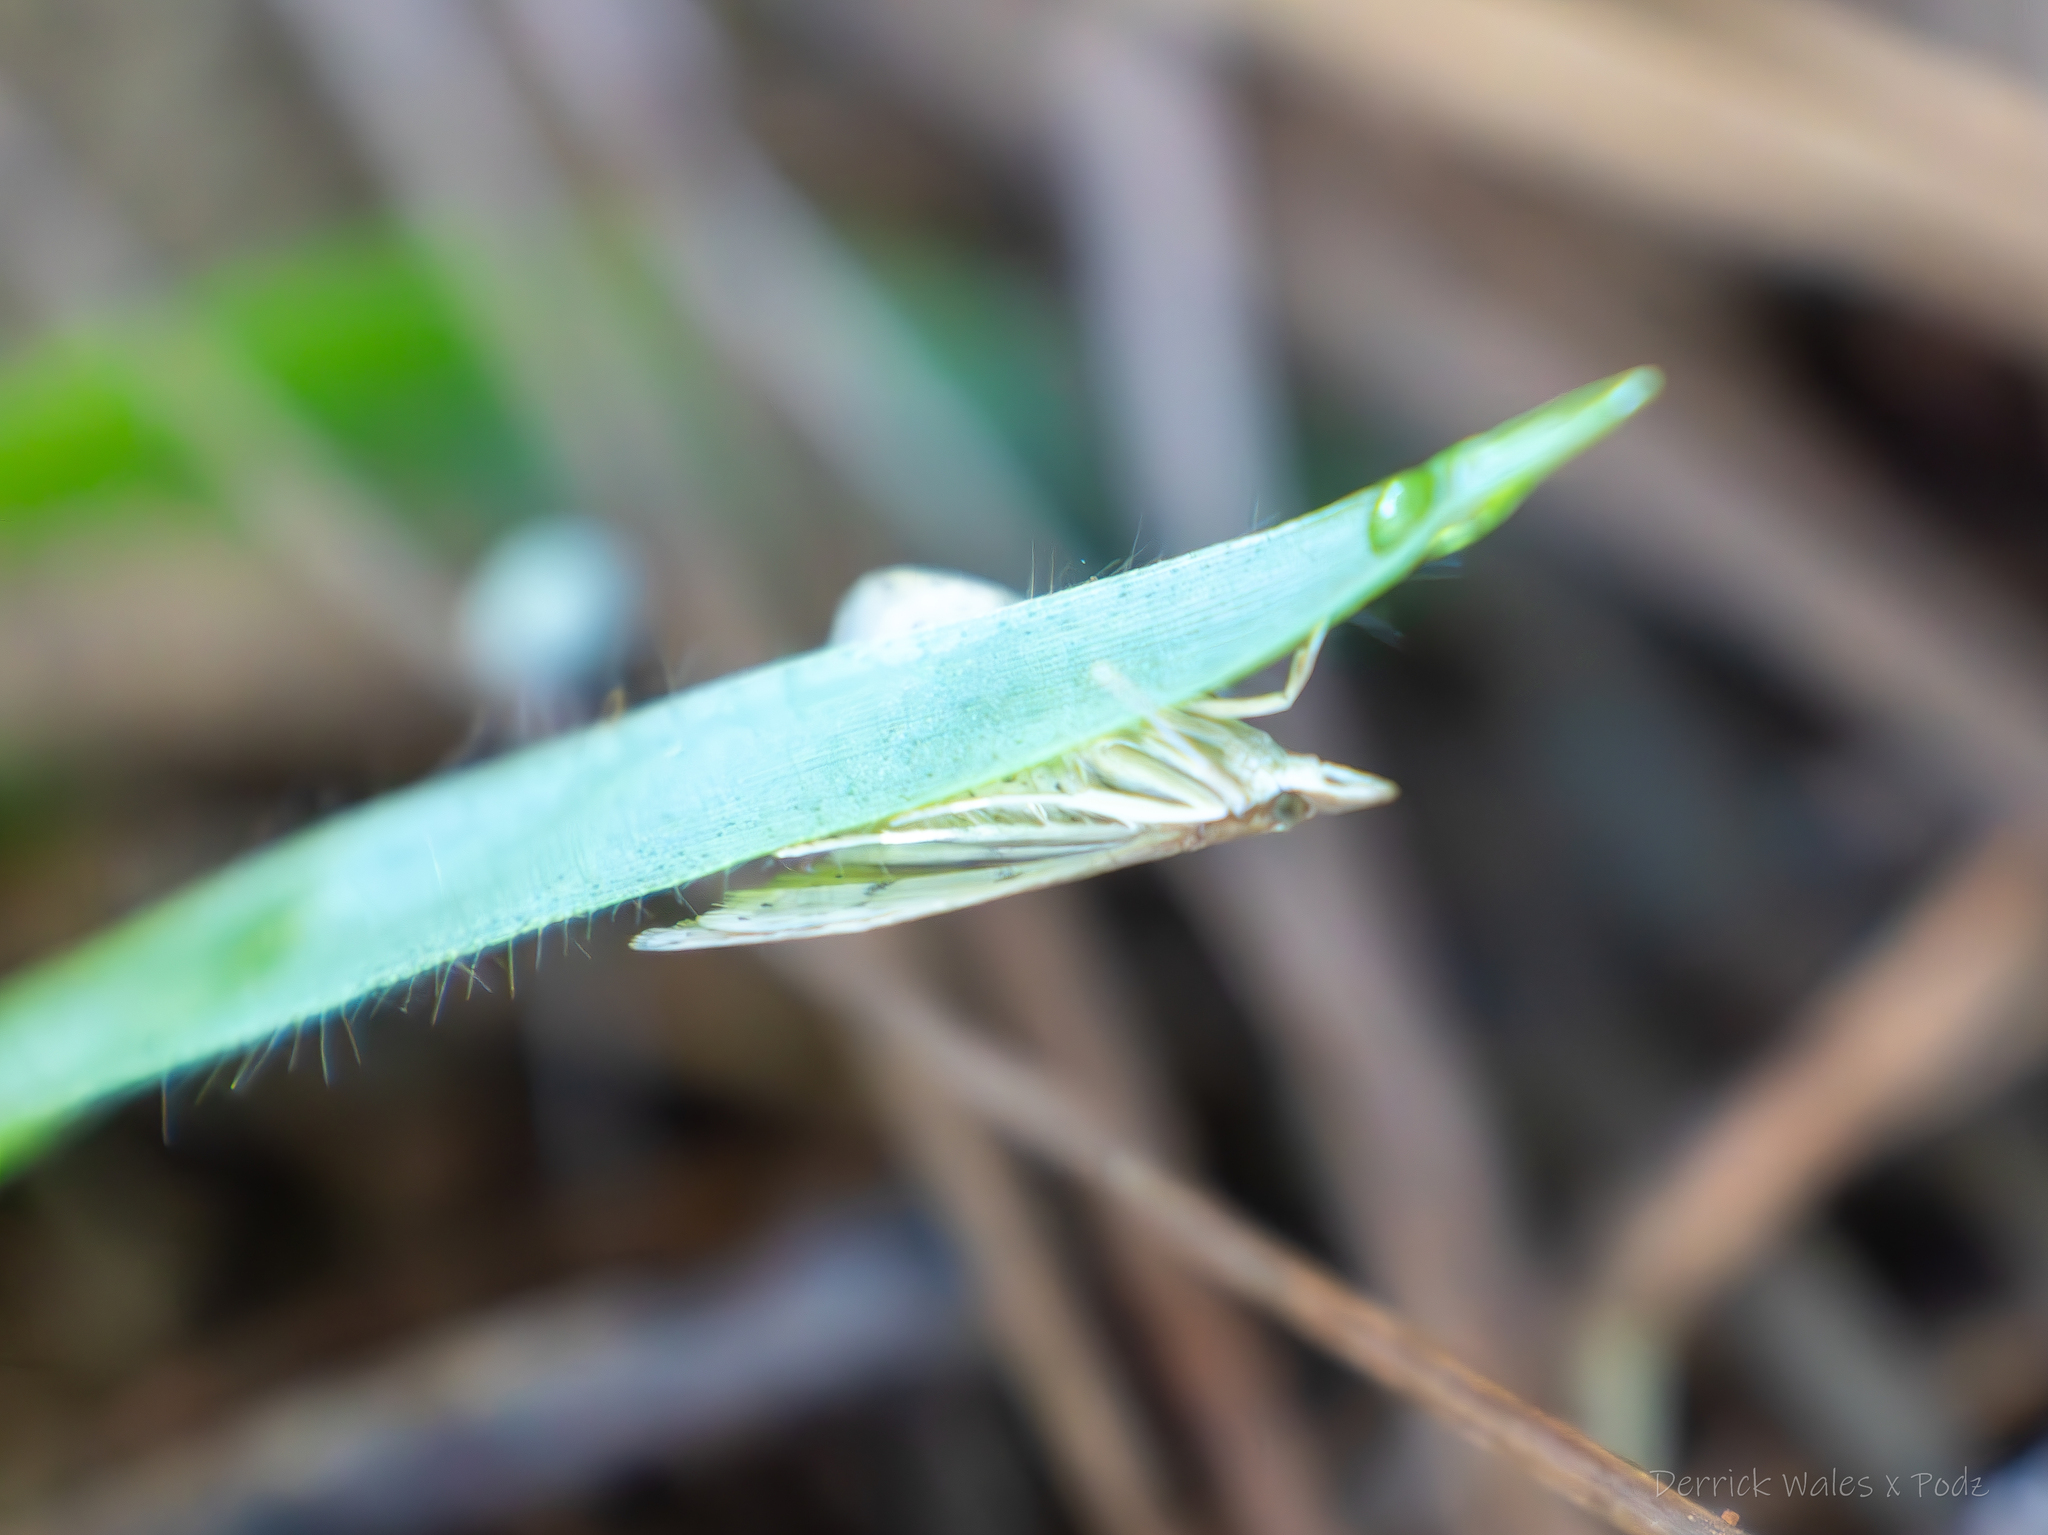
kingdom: Animalia
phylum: Arthropoda
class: Insecta
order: Lepidoptera
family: Crambidae
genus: Udea
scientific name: Udea rubigalis
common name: Celery leaftier moth
